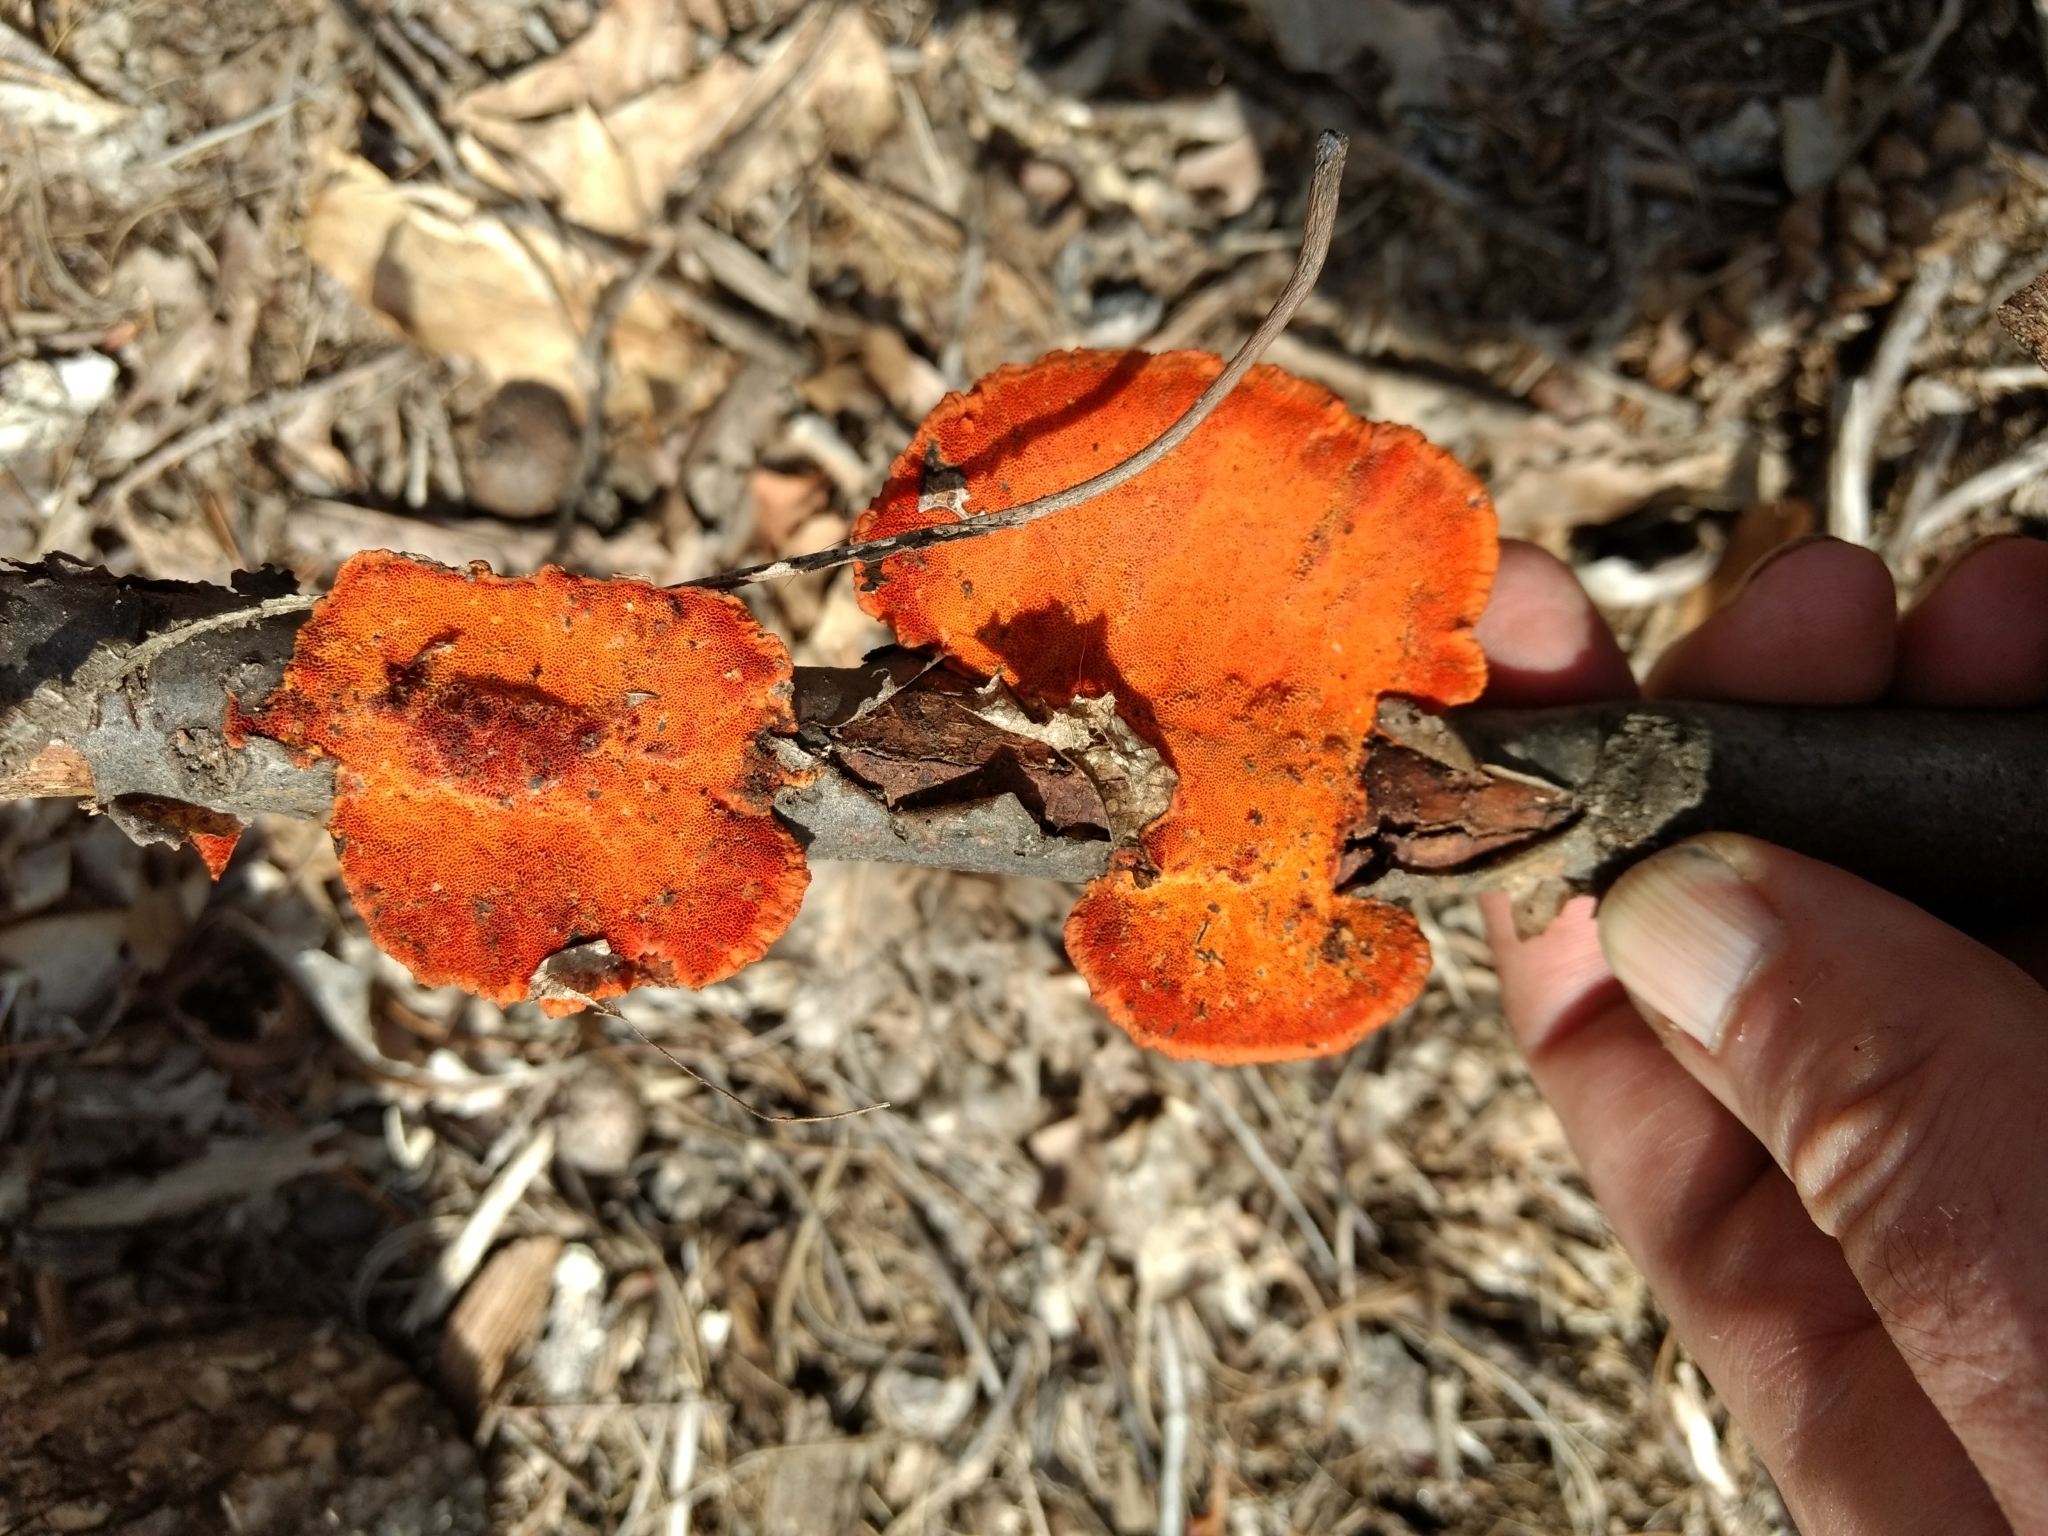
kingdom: Fungi
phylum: Basidiomycota
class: Agaricomycetes
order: Polyporales
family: Polyporaceae
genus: Trametes
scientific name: Trametes cinnabarina
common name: Northern cinnabar polypore
